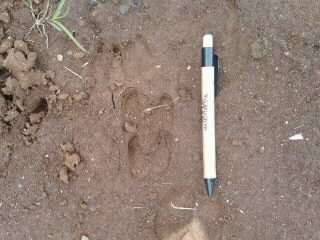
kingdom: Animalia
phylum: Chordata
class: Mammalia
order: Artiodactyla
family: Cervidae
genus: Odocoileus
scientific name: Odocoileus virginianus
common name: White-tailed deer
